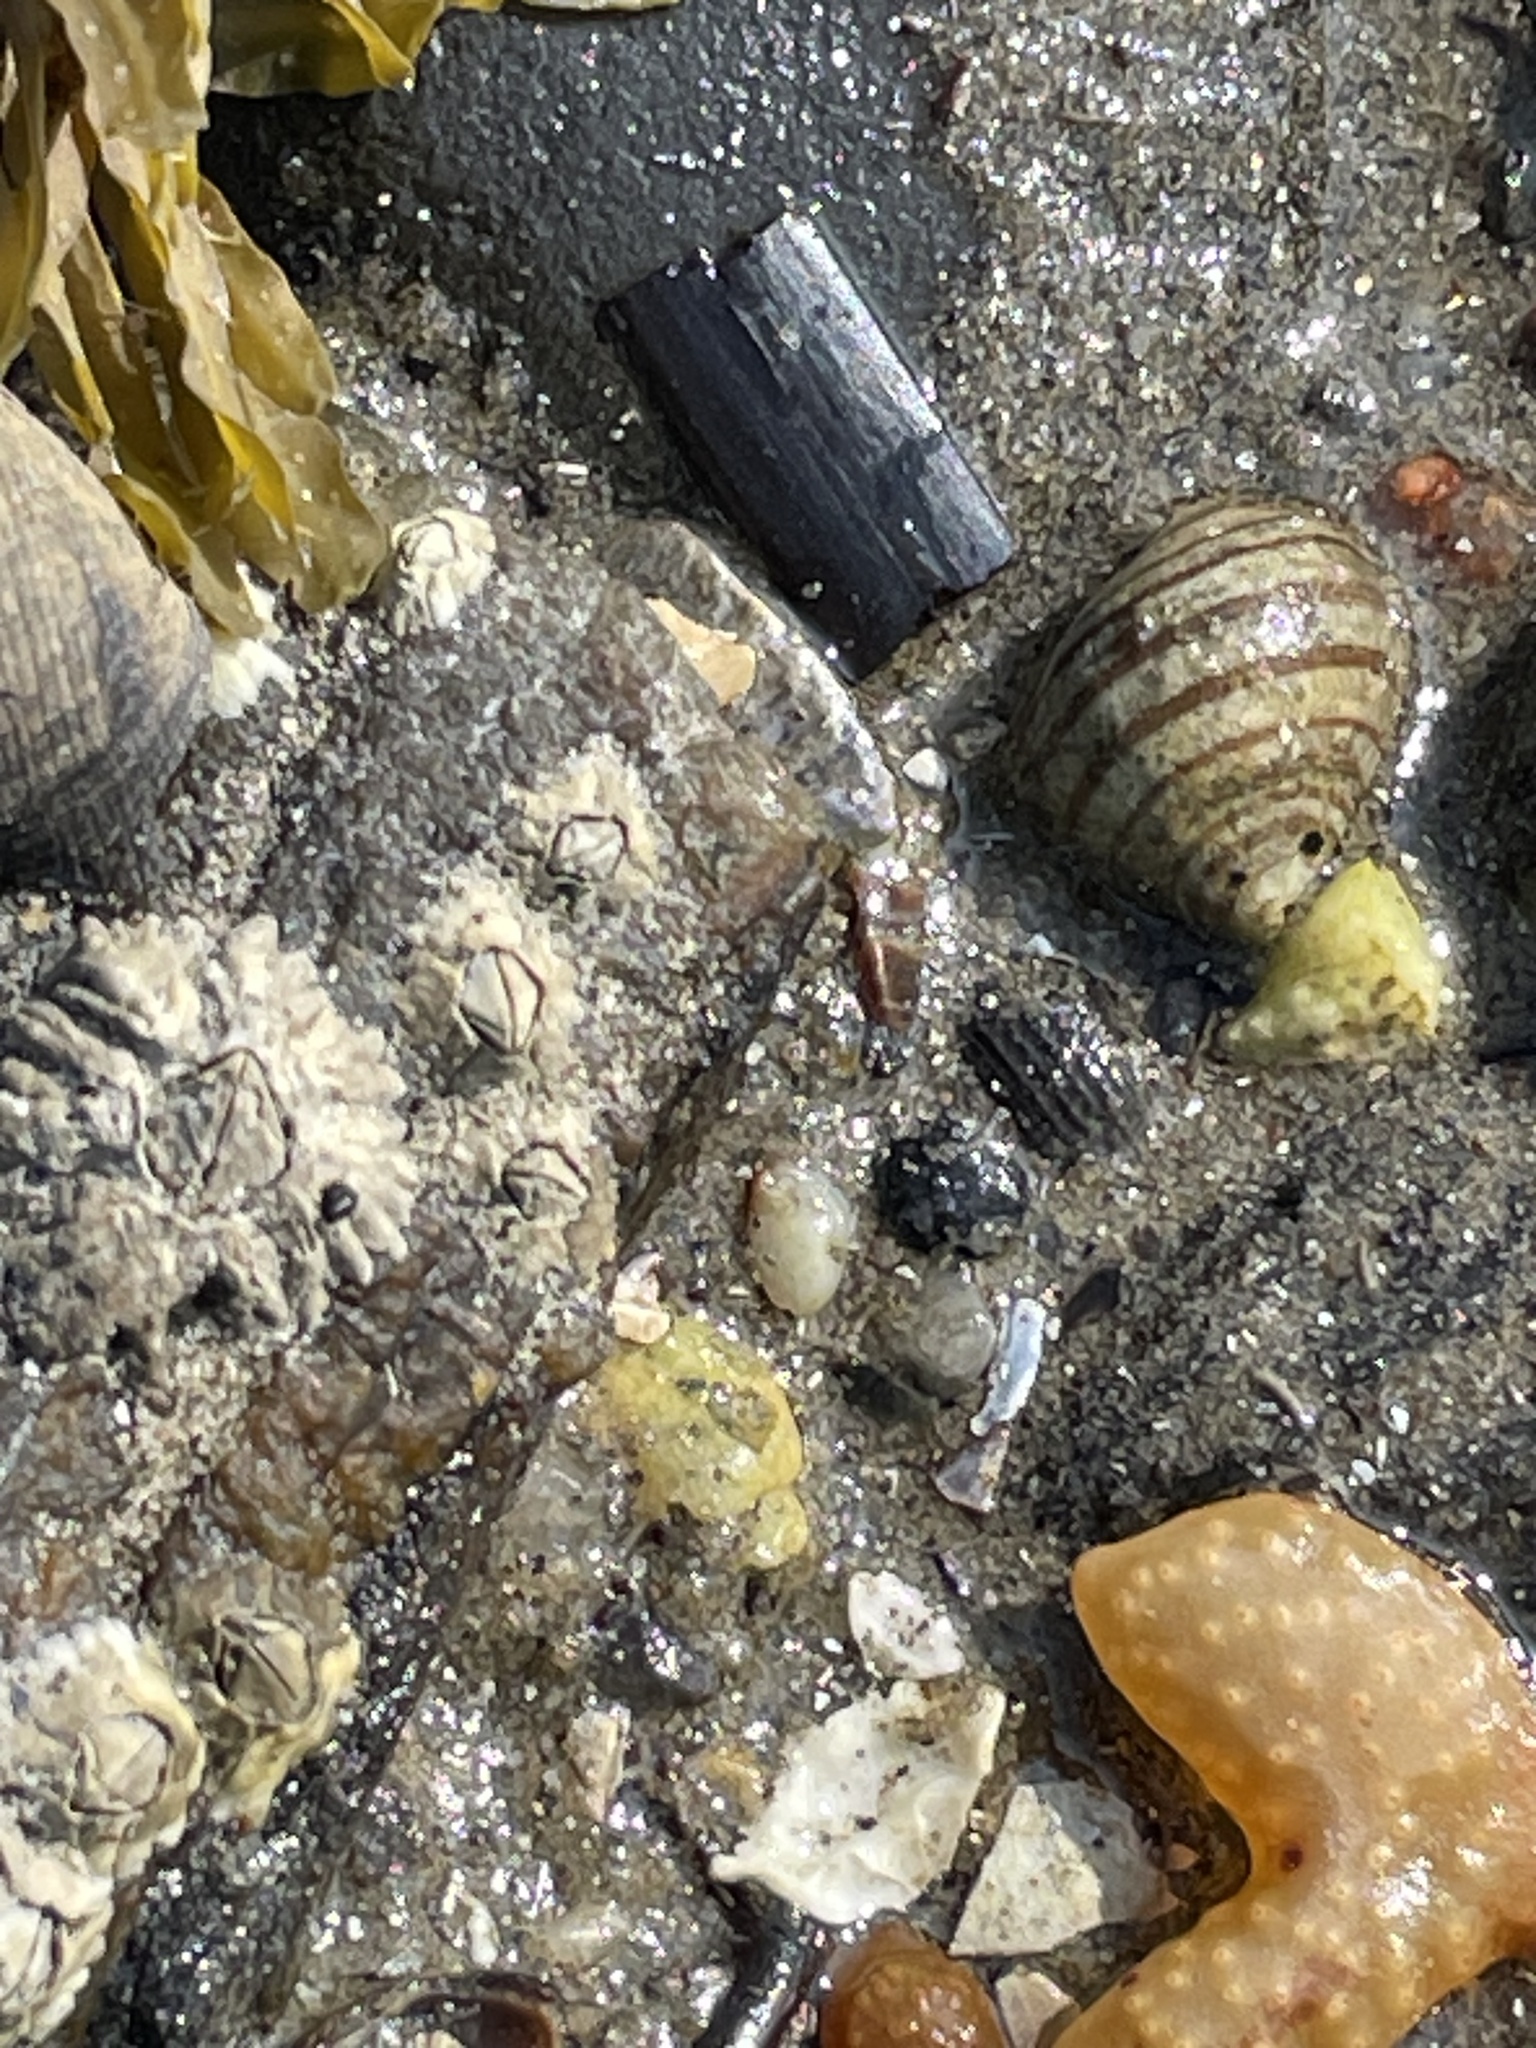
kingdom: Animalia
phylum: Mollusca
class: Gastropoda
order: Littorinimorpha
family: Littorinidae
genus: Littorina
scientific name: Littorina littorea
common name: Common periwinkle
